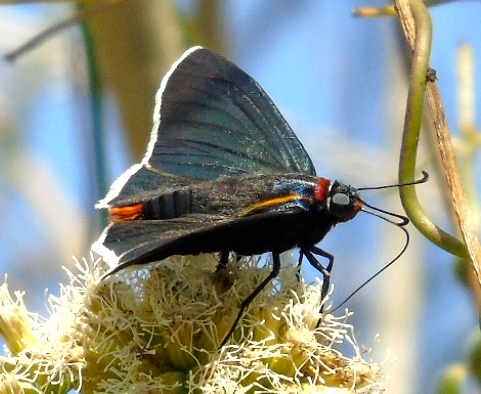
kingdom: Animalia
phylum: Arthropoda
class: Insecta
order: Lepidoptera
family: Hesperiidae
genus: Elbella
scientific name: Elbella scylla
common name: Scylla firetip
